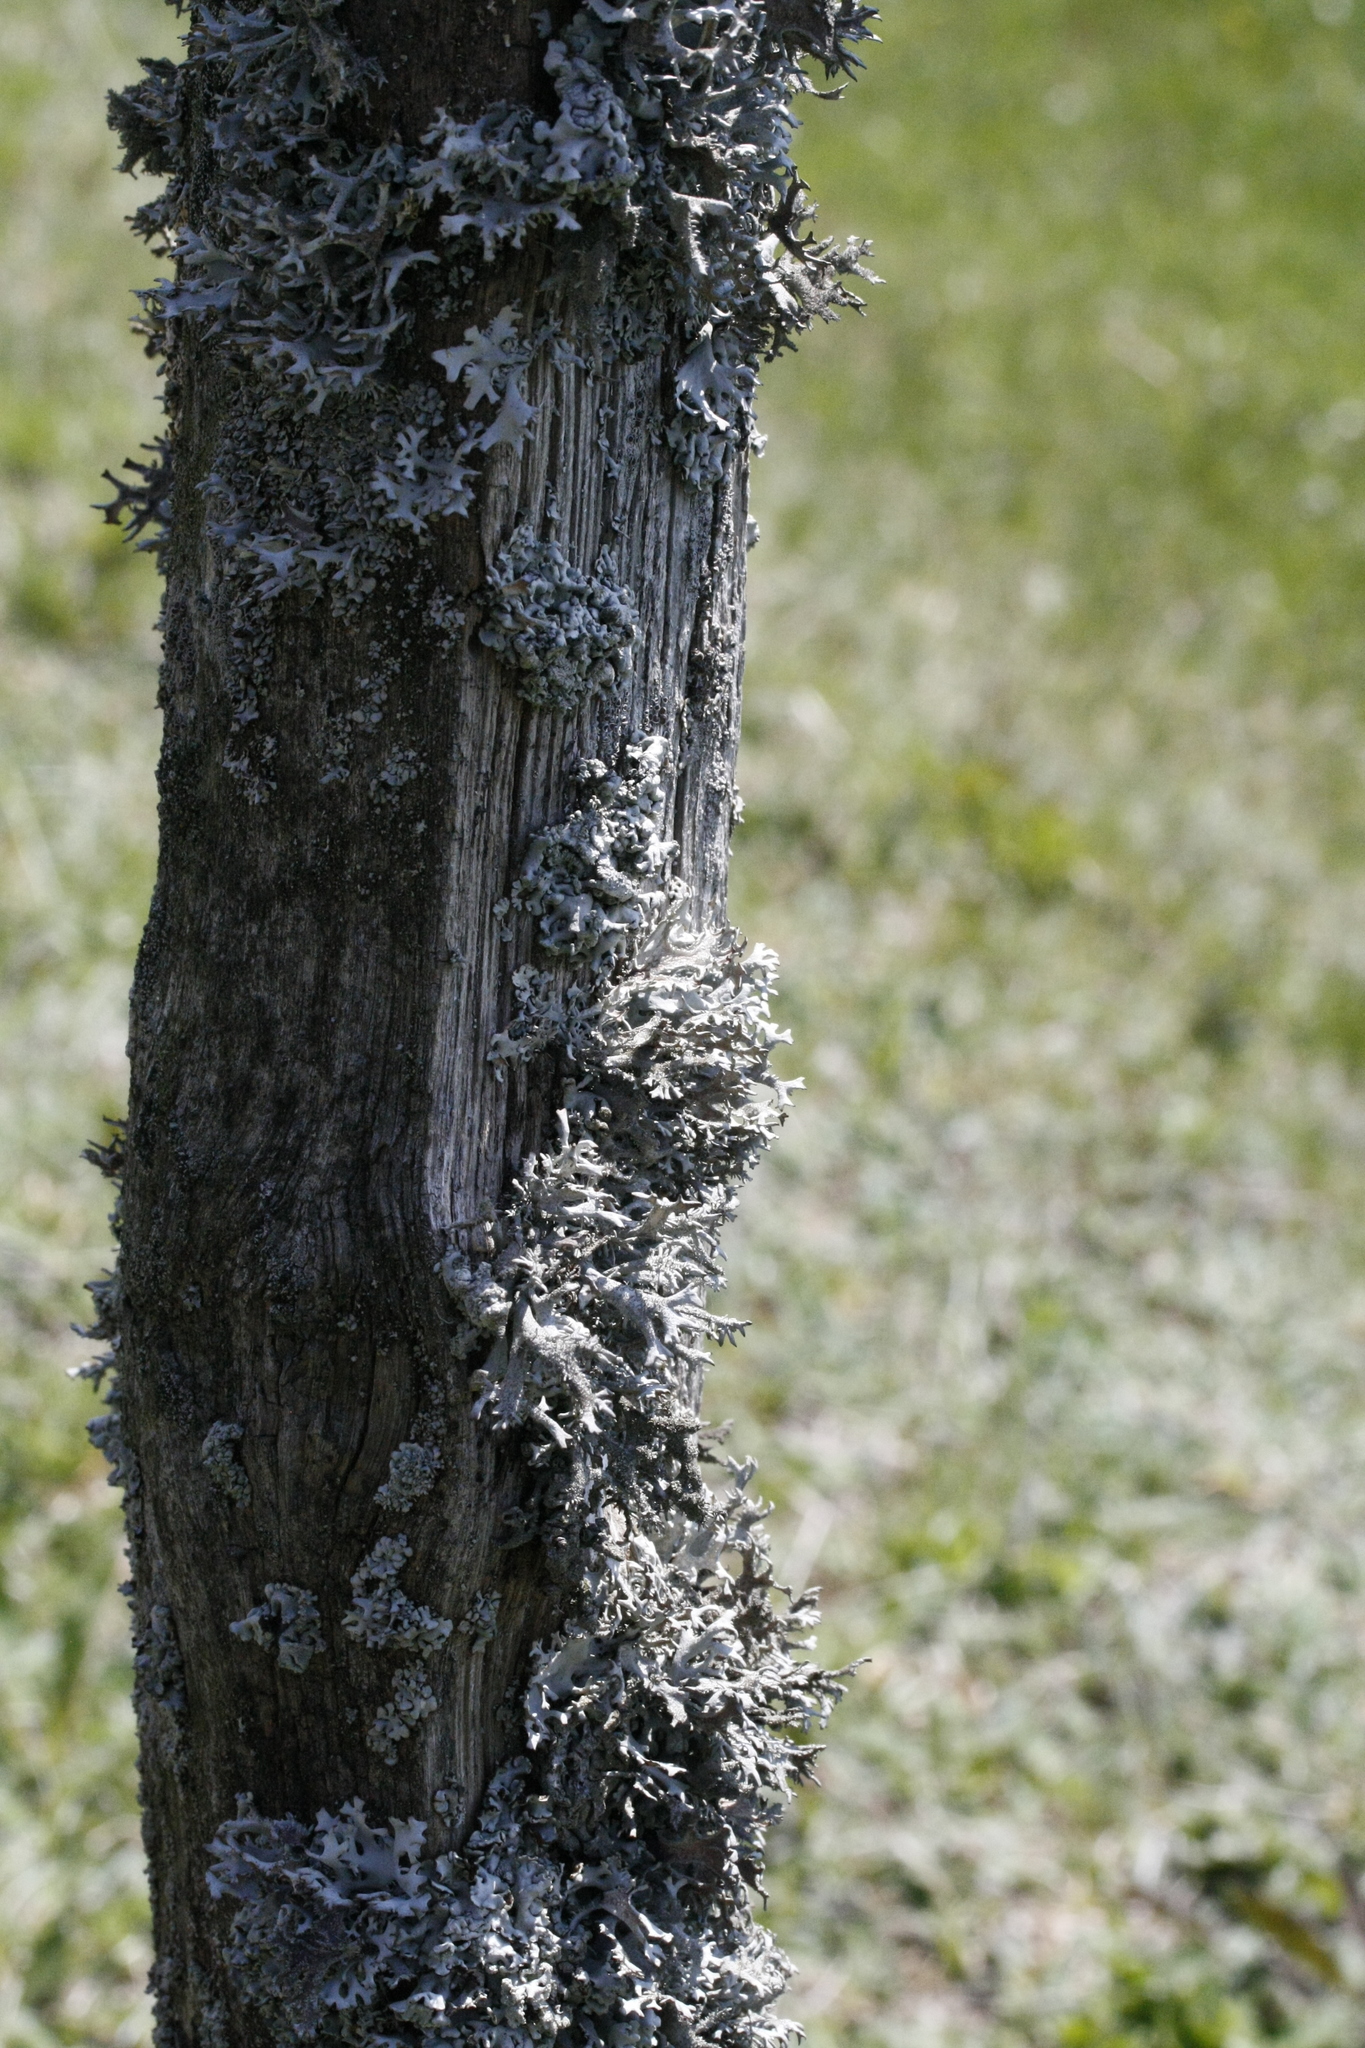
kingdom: Fungi
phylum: Ascomycota
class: Lecanoromycetes
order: Lecanorales
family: Parmeliaceae
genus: Pseudevernia
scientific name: Pseudevernia furfuracea
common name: Tree moss
